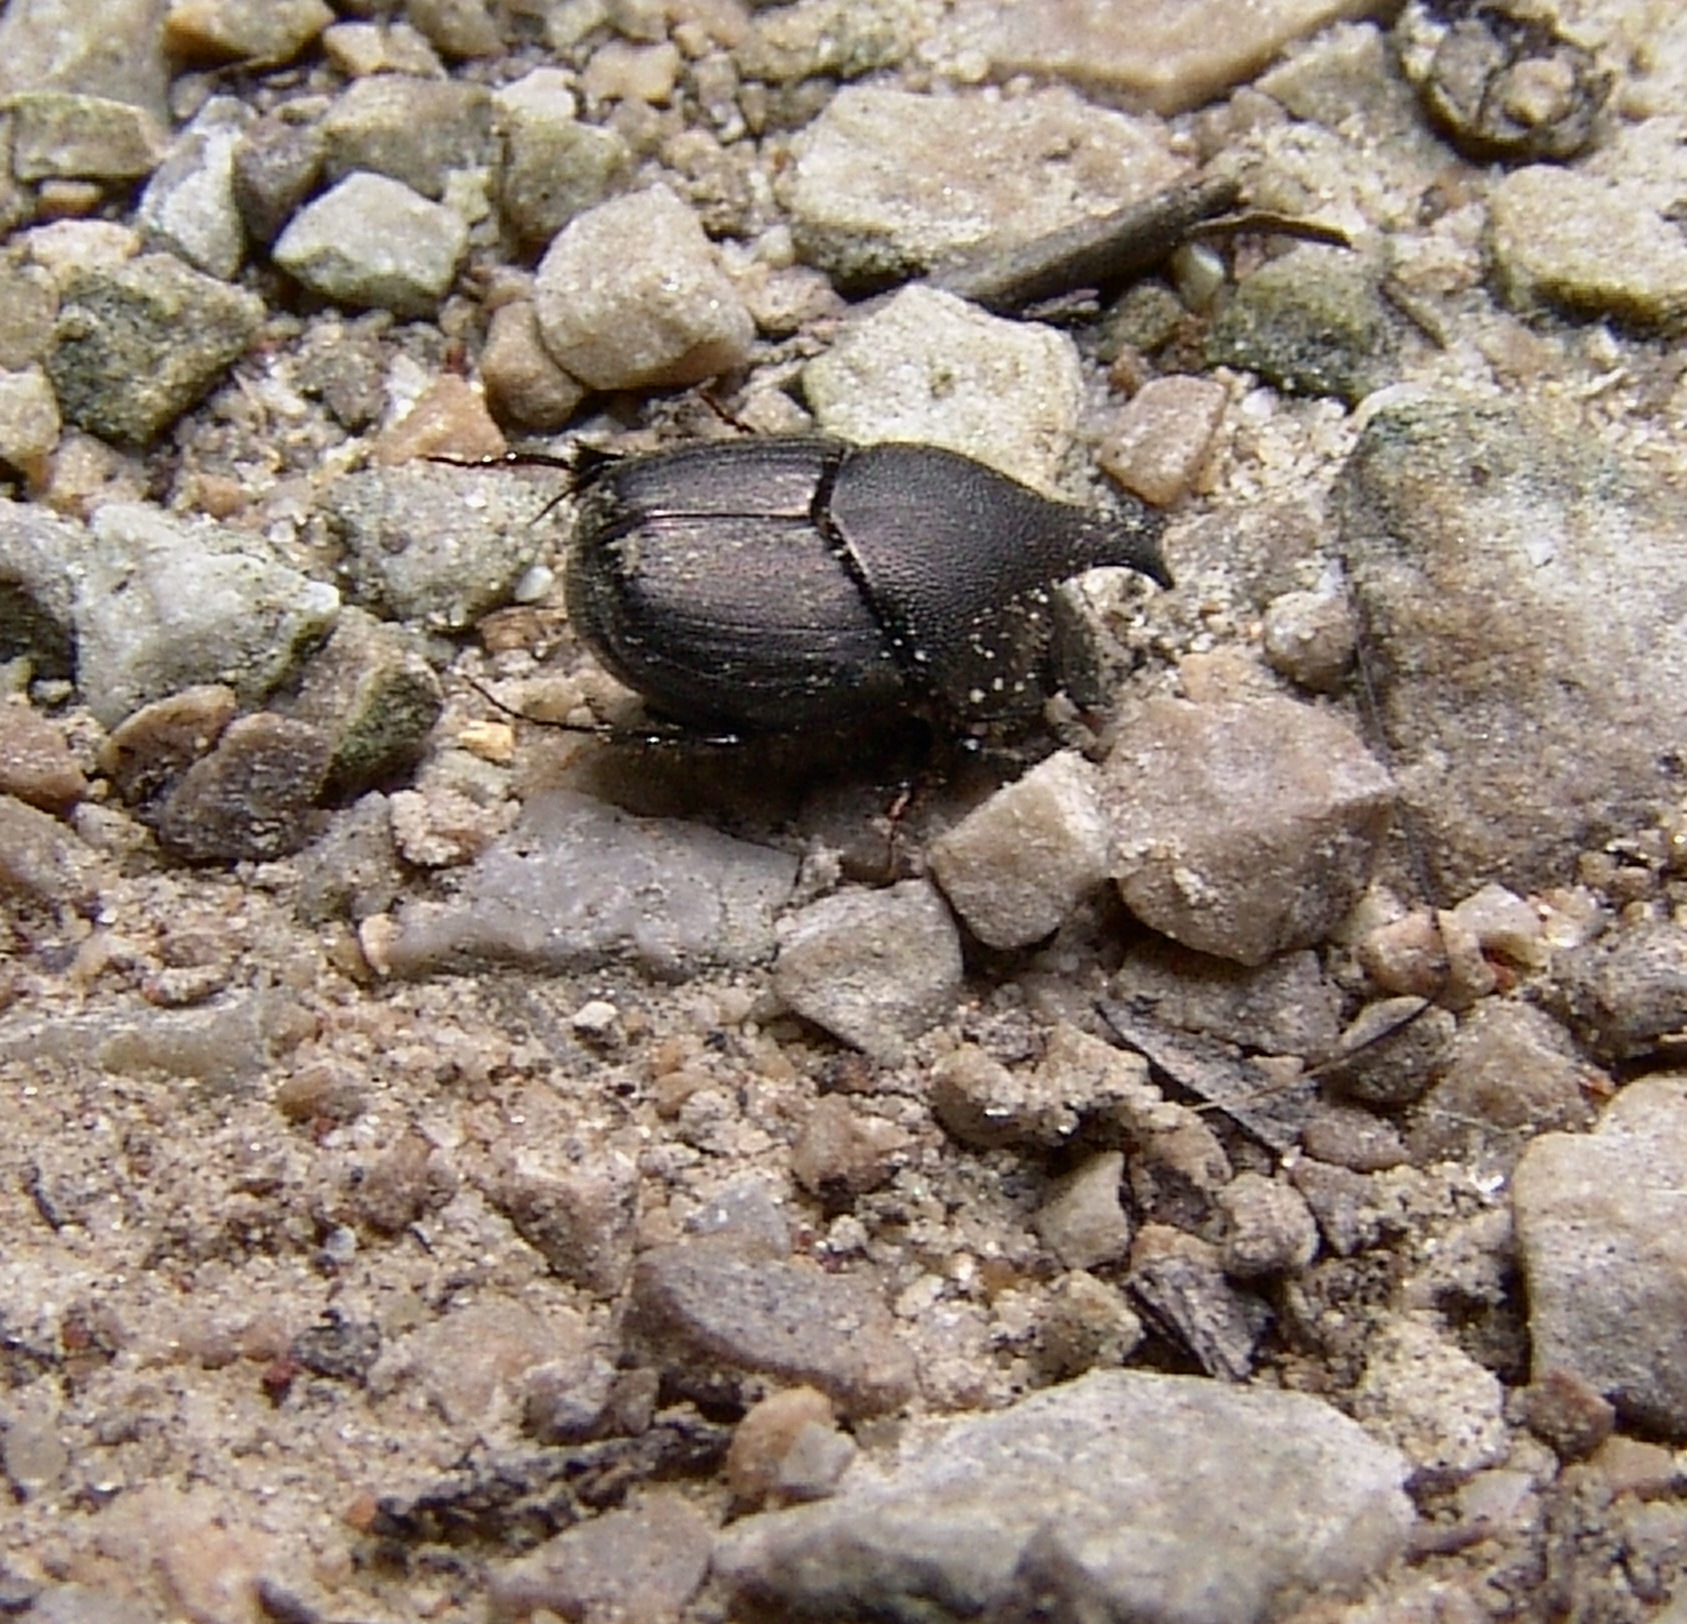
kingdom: Animalia
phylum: Arthropoda
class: Insecta
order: Coleoptera
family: Scarabaeidae
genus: Onthophagus
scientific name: Onthophagus hecate
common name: Scooped scarab
